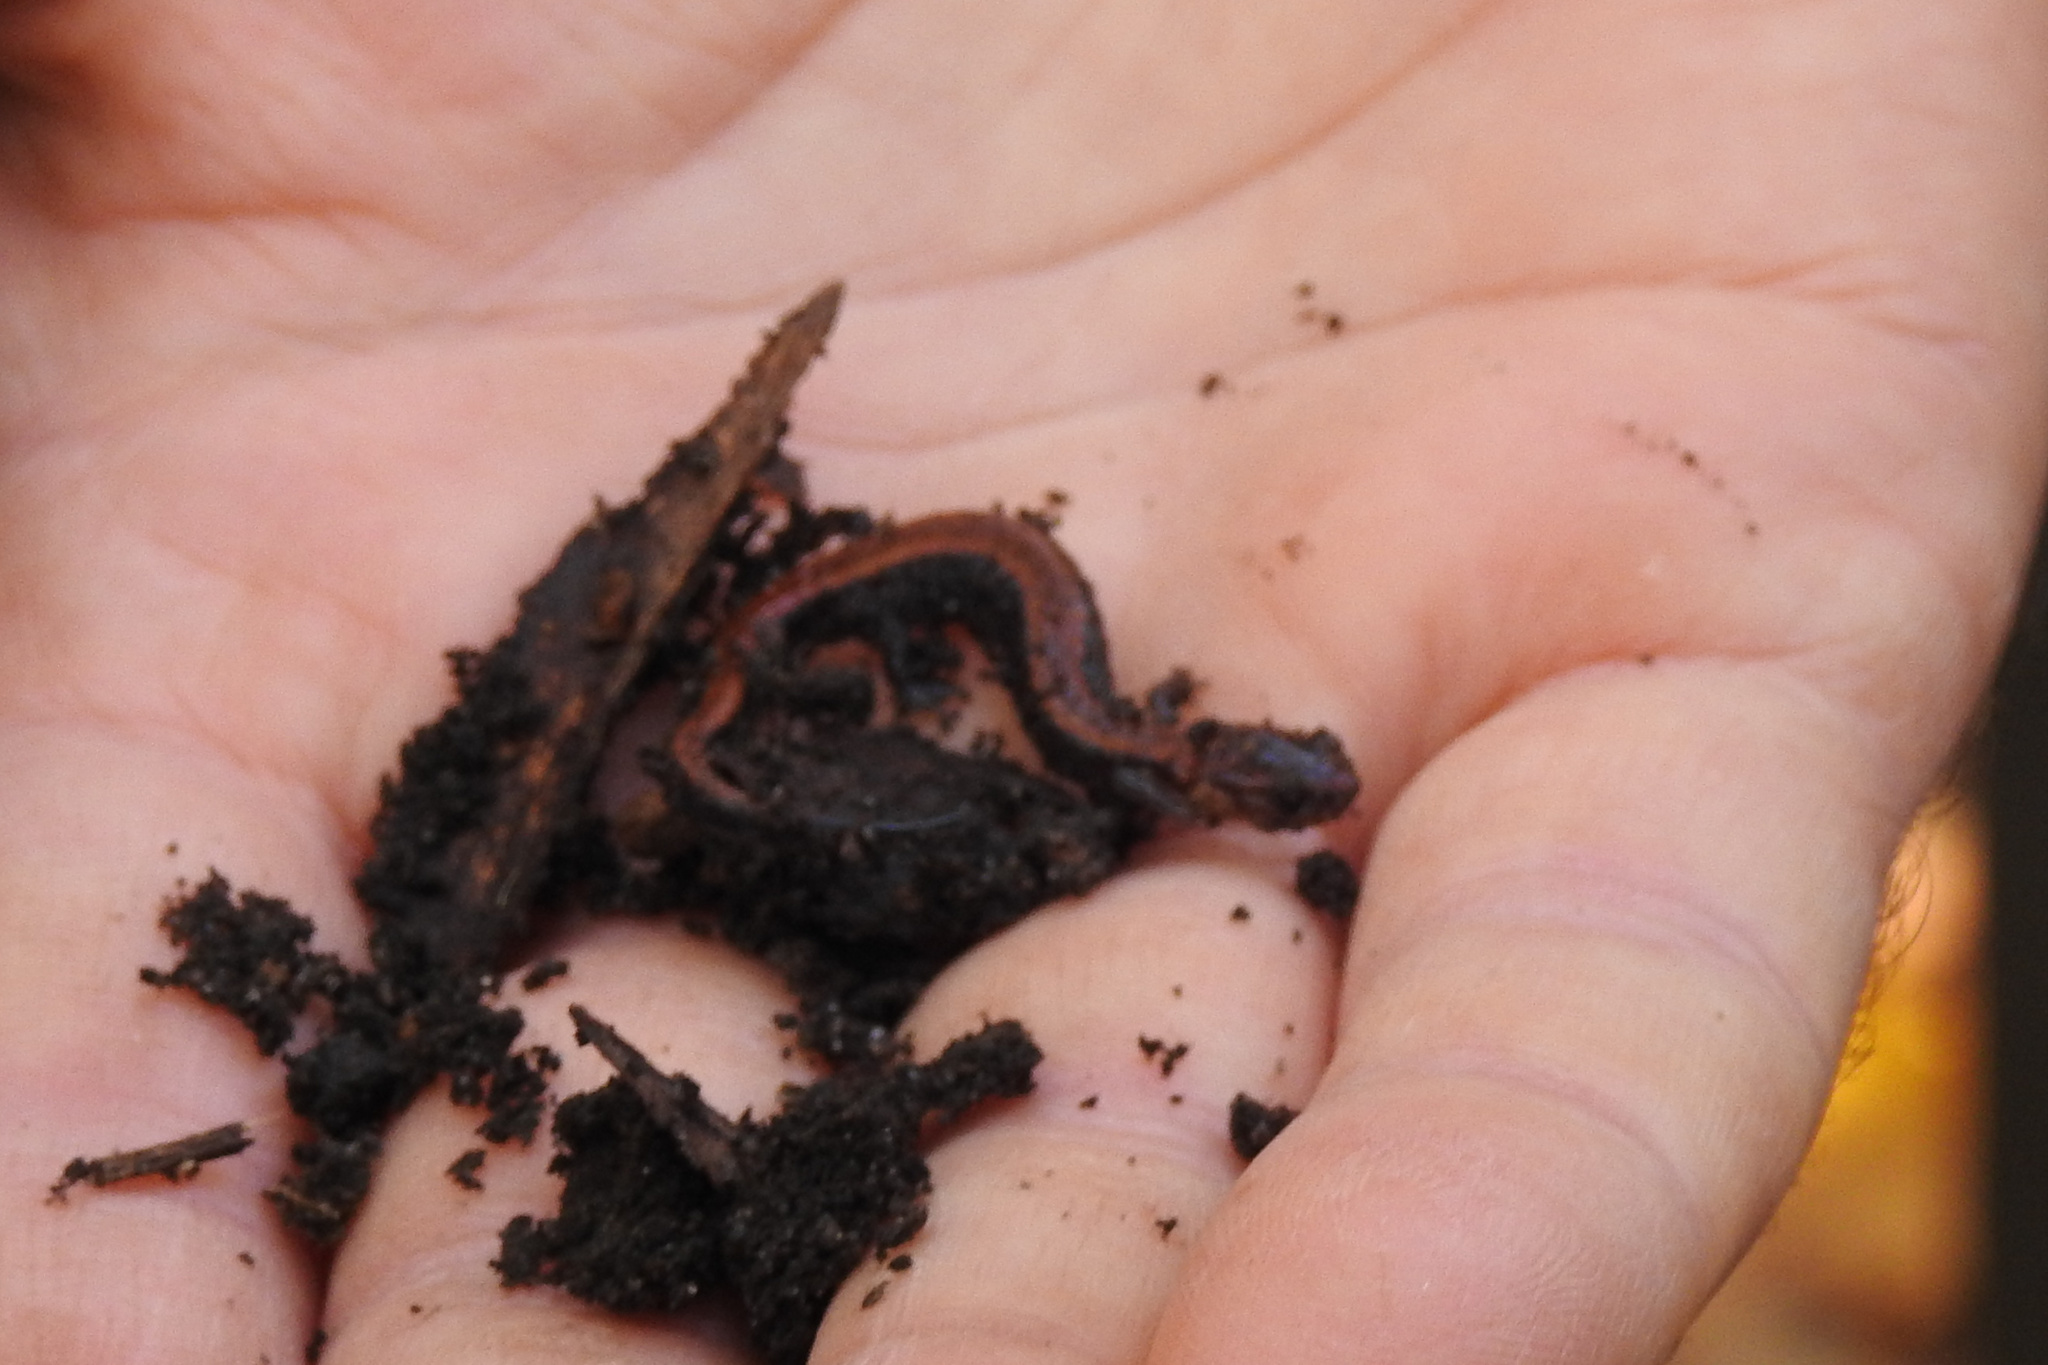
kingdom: Animalia
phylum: Chordata
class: Amphibia
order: Caudata
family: Plethodontidae
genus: Plethodon
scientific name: Plethodon cinereus
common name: Redback salamander
